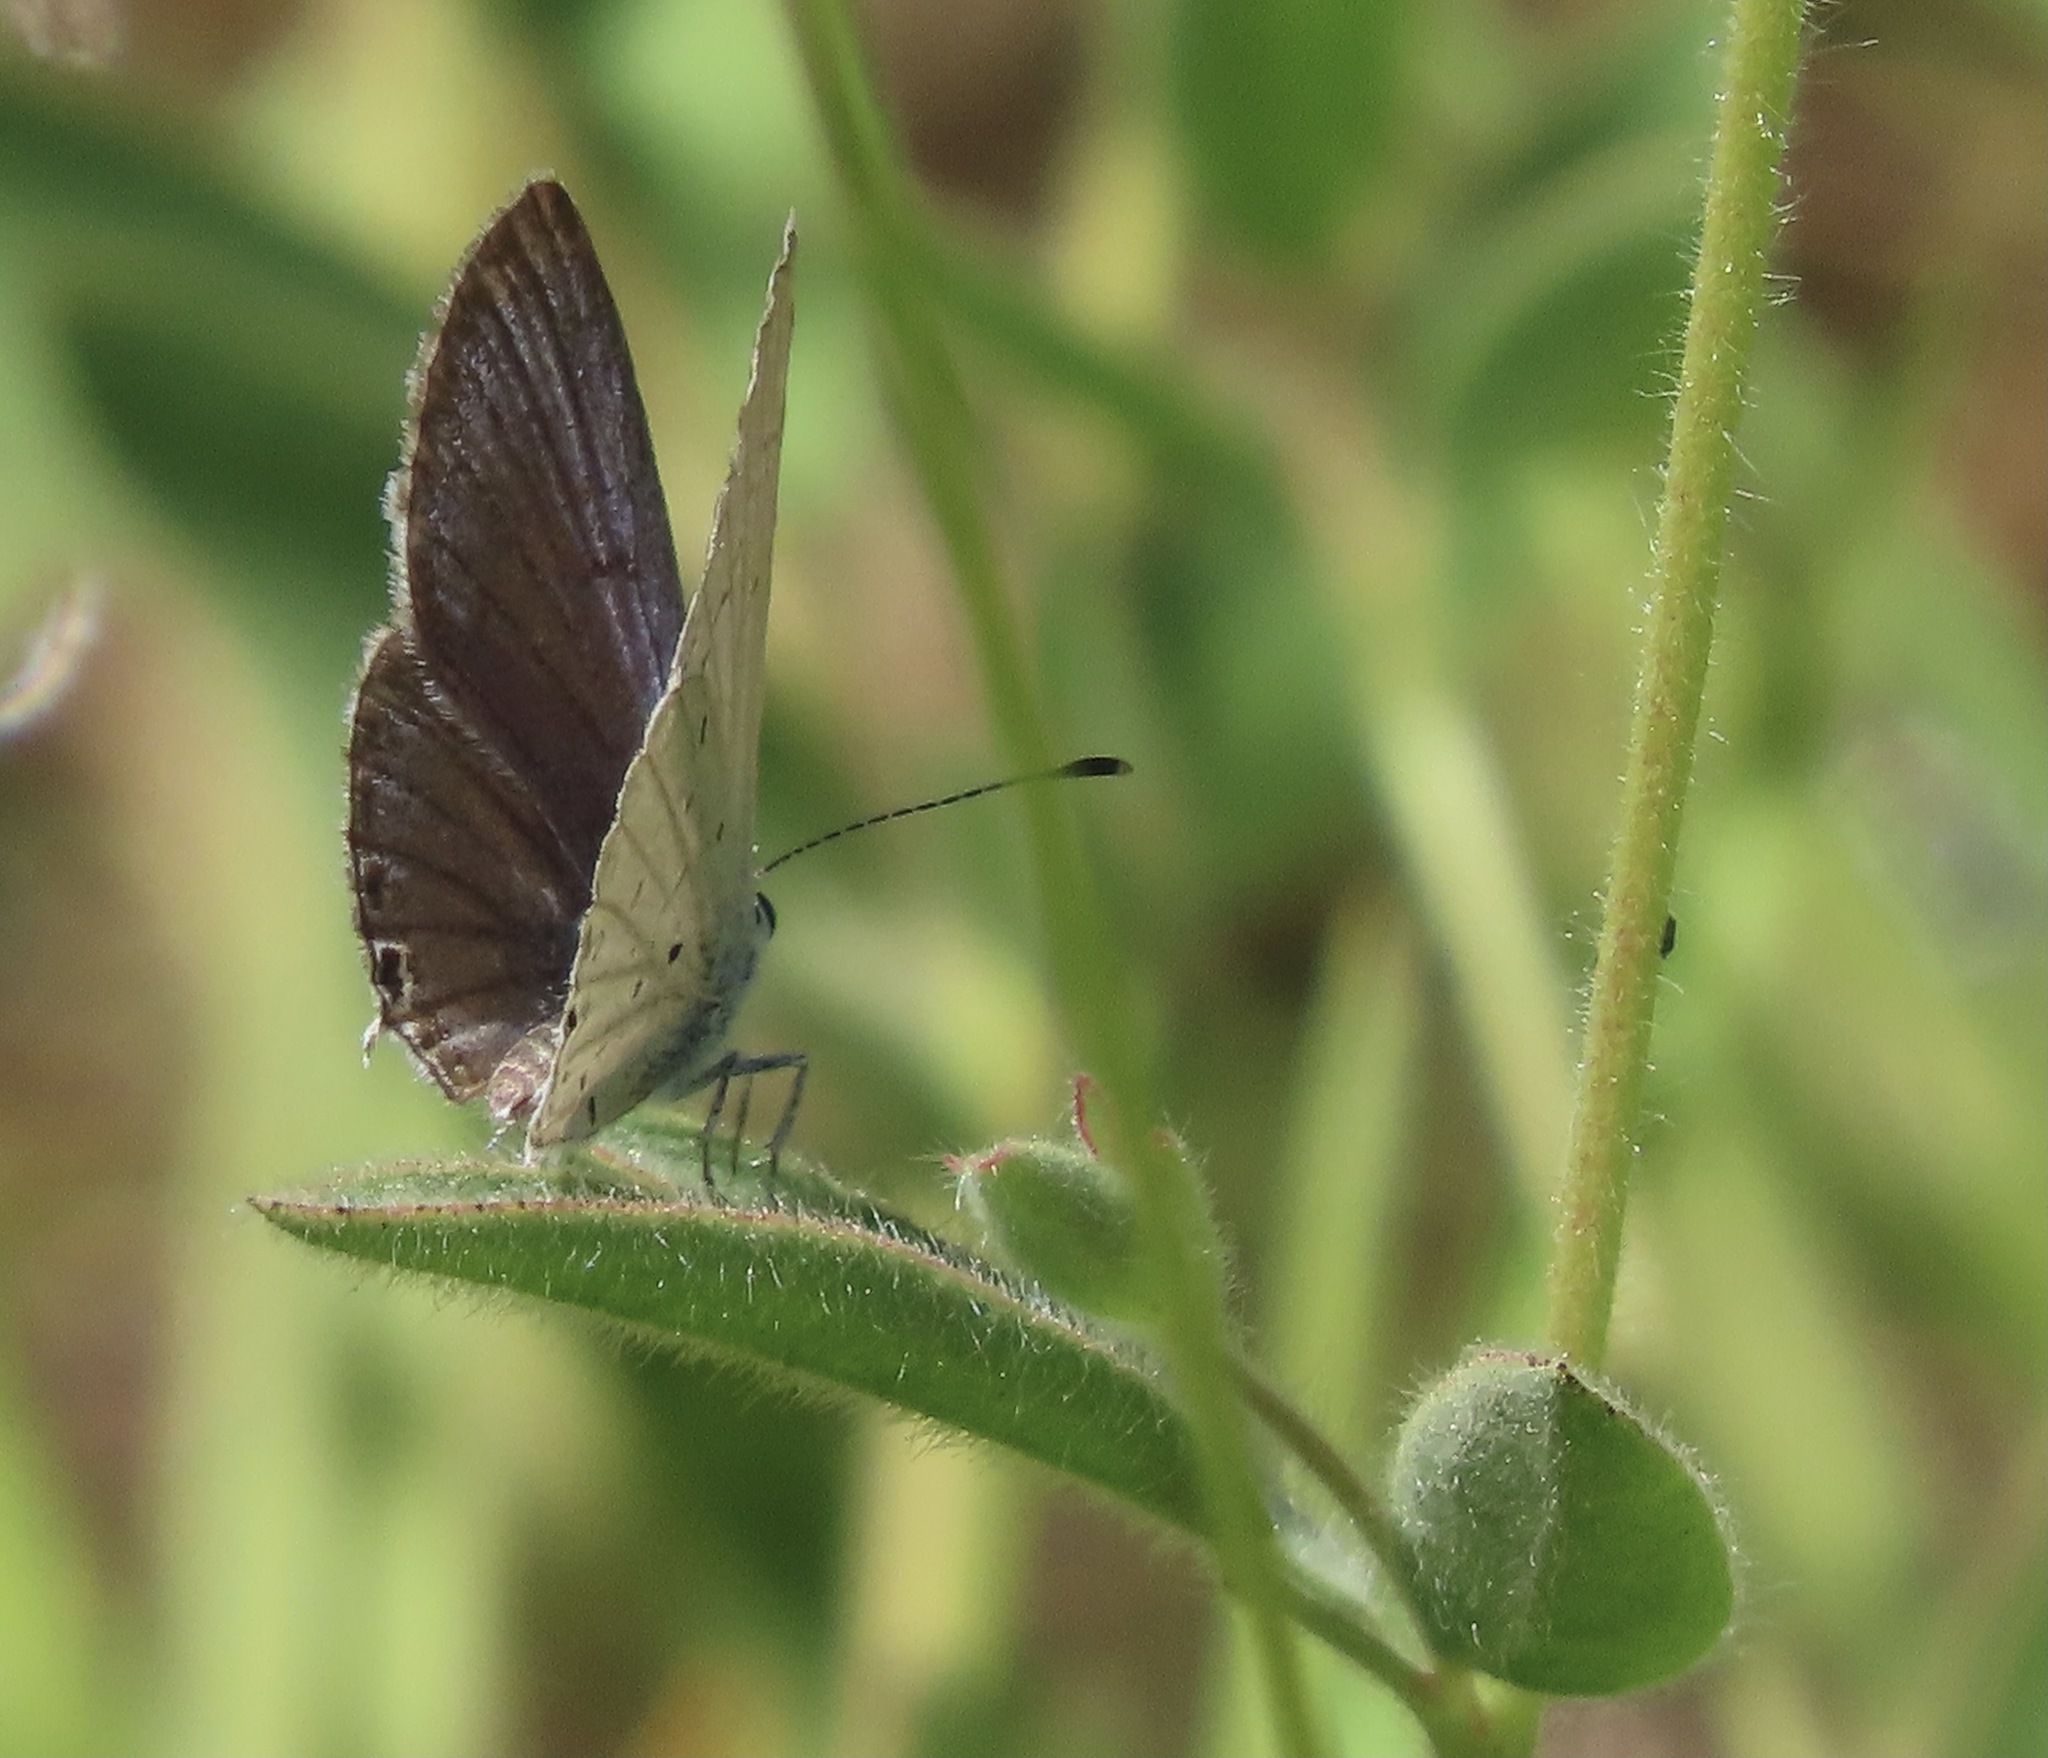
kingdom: Animalia
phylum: Arthropoda
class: Insecta
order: Lepidoptera
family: Lycaenidae
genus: Elkalyce
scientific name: Elkalyce amyntula
